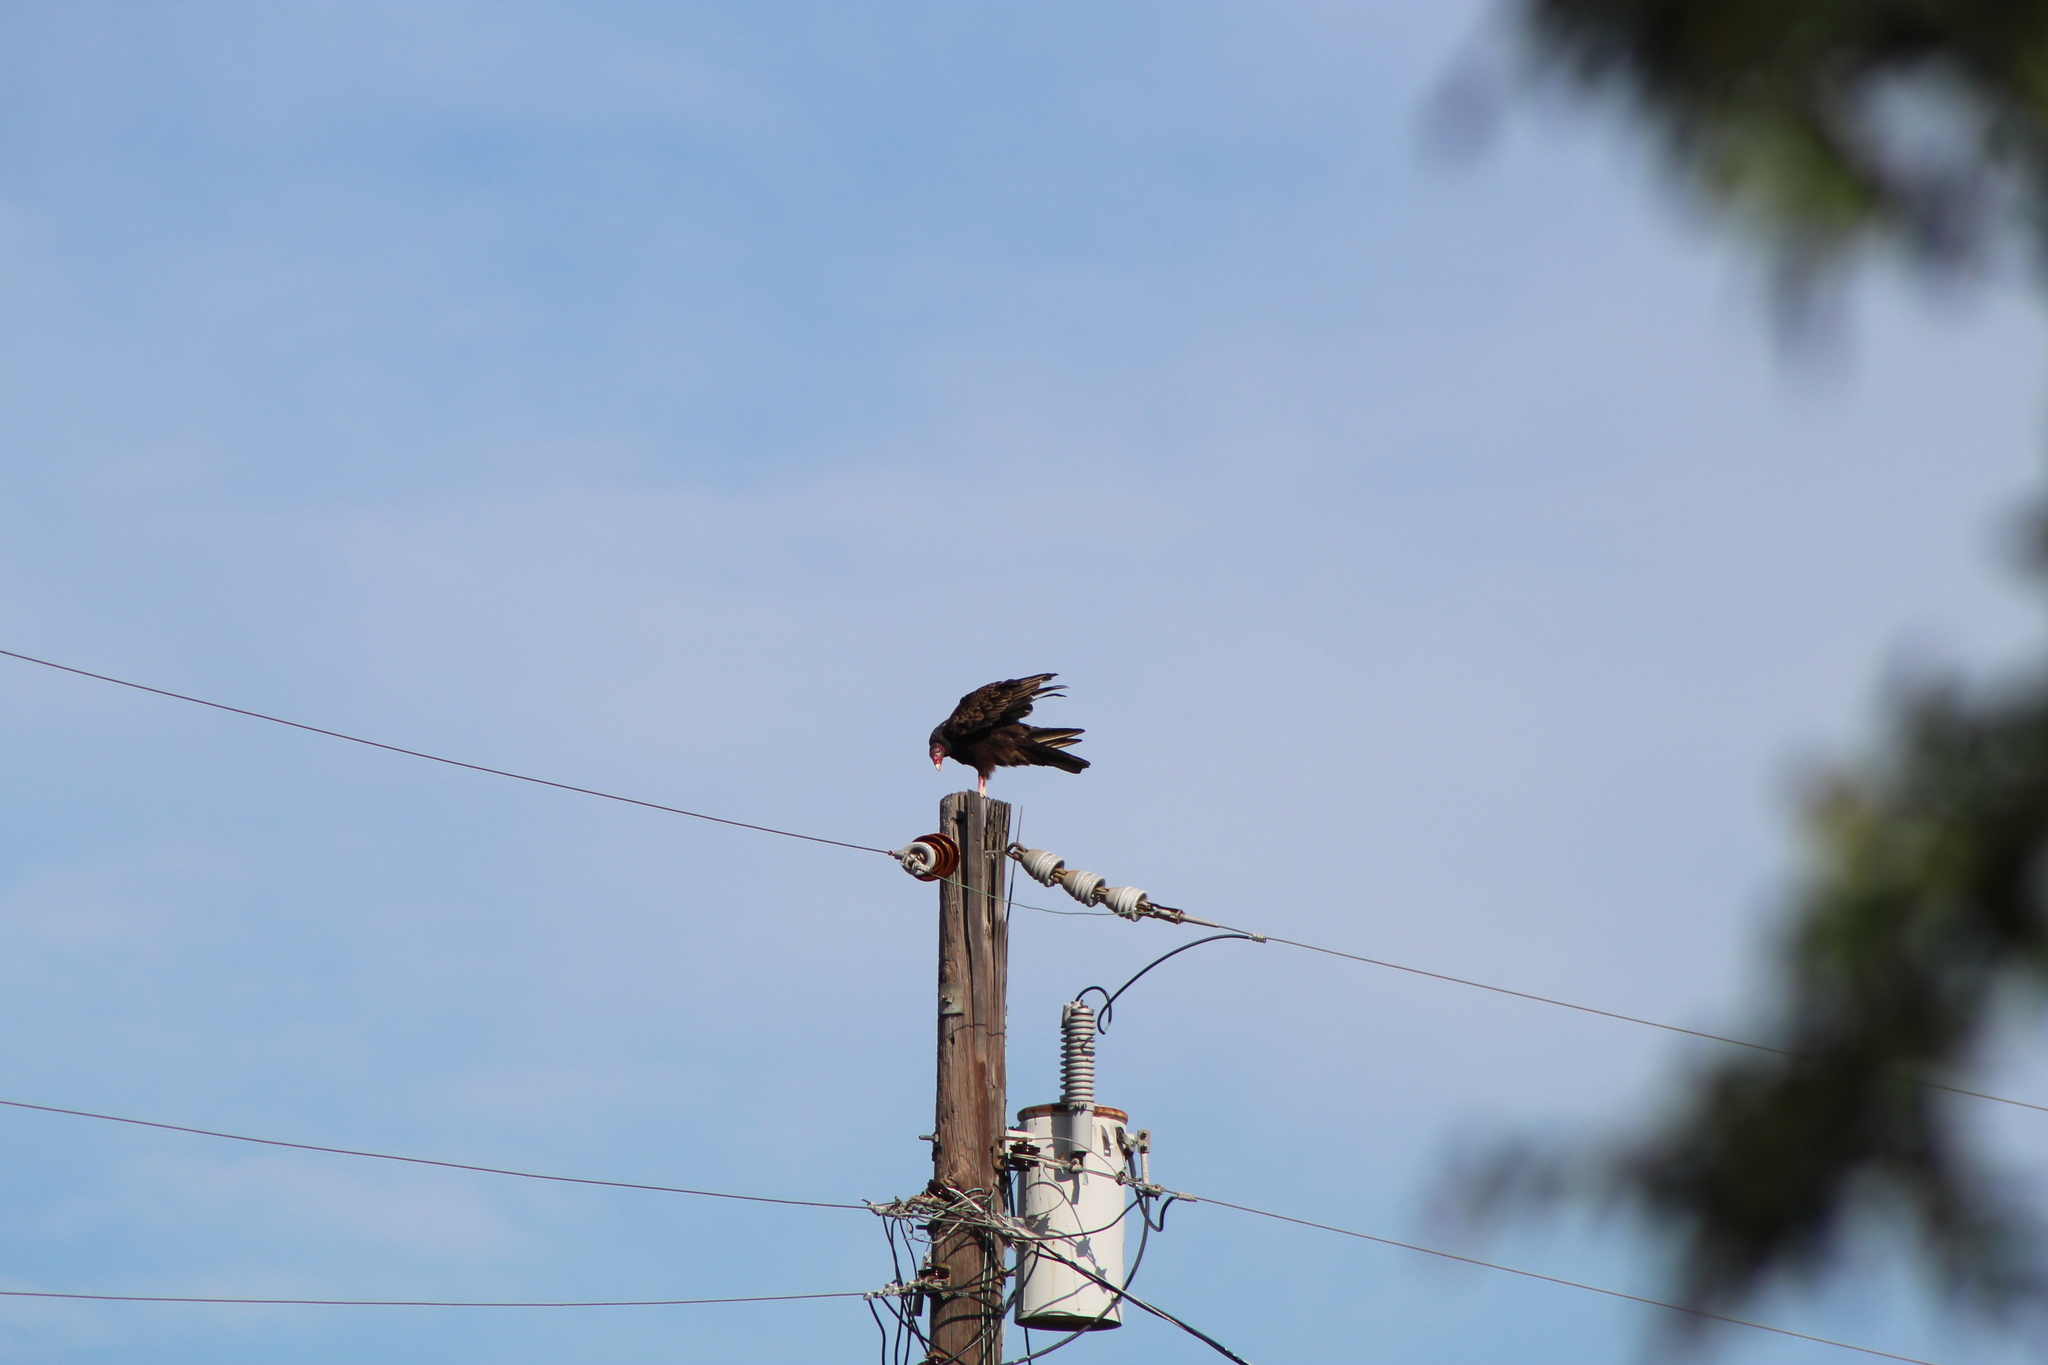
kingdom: Animalia
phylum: Chordata
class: Aves
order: Accipitriformes
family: Cathartidae
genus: Cathartes
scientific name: Cathartes aura
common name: Turkey vulture
